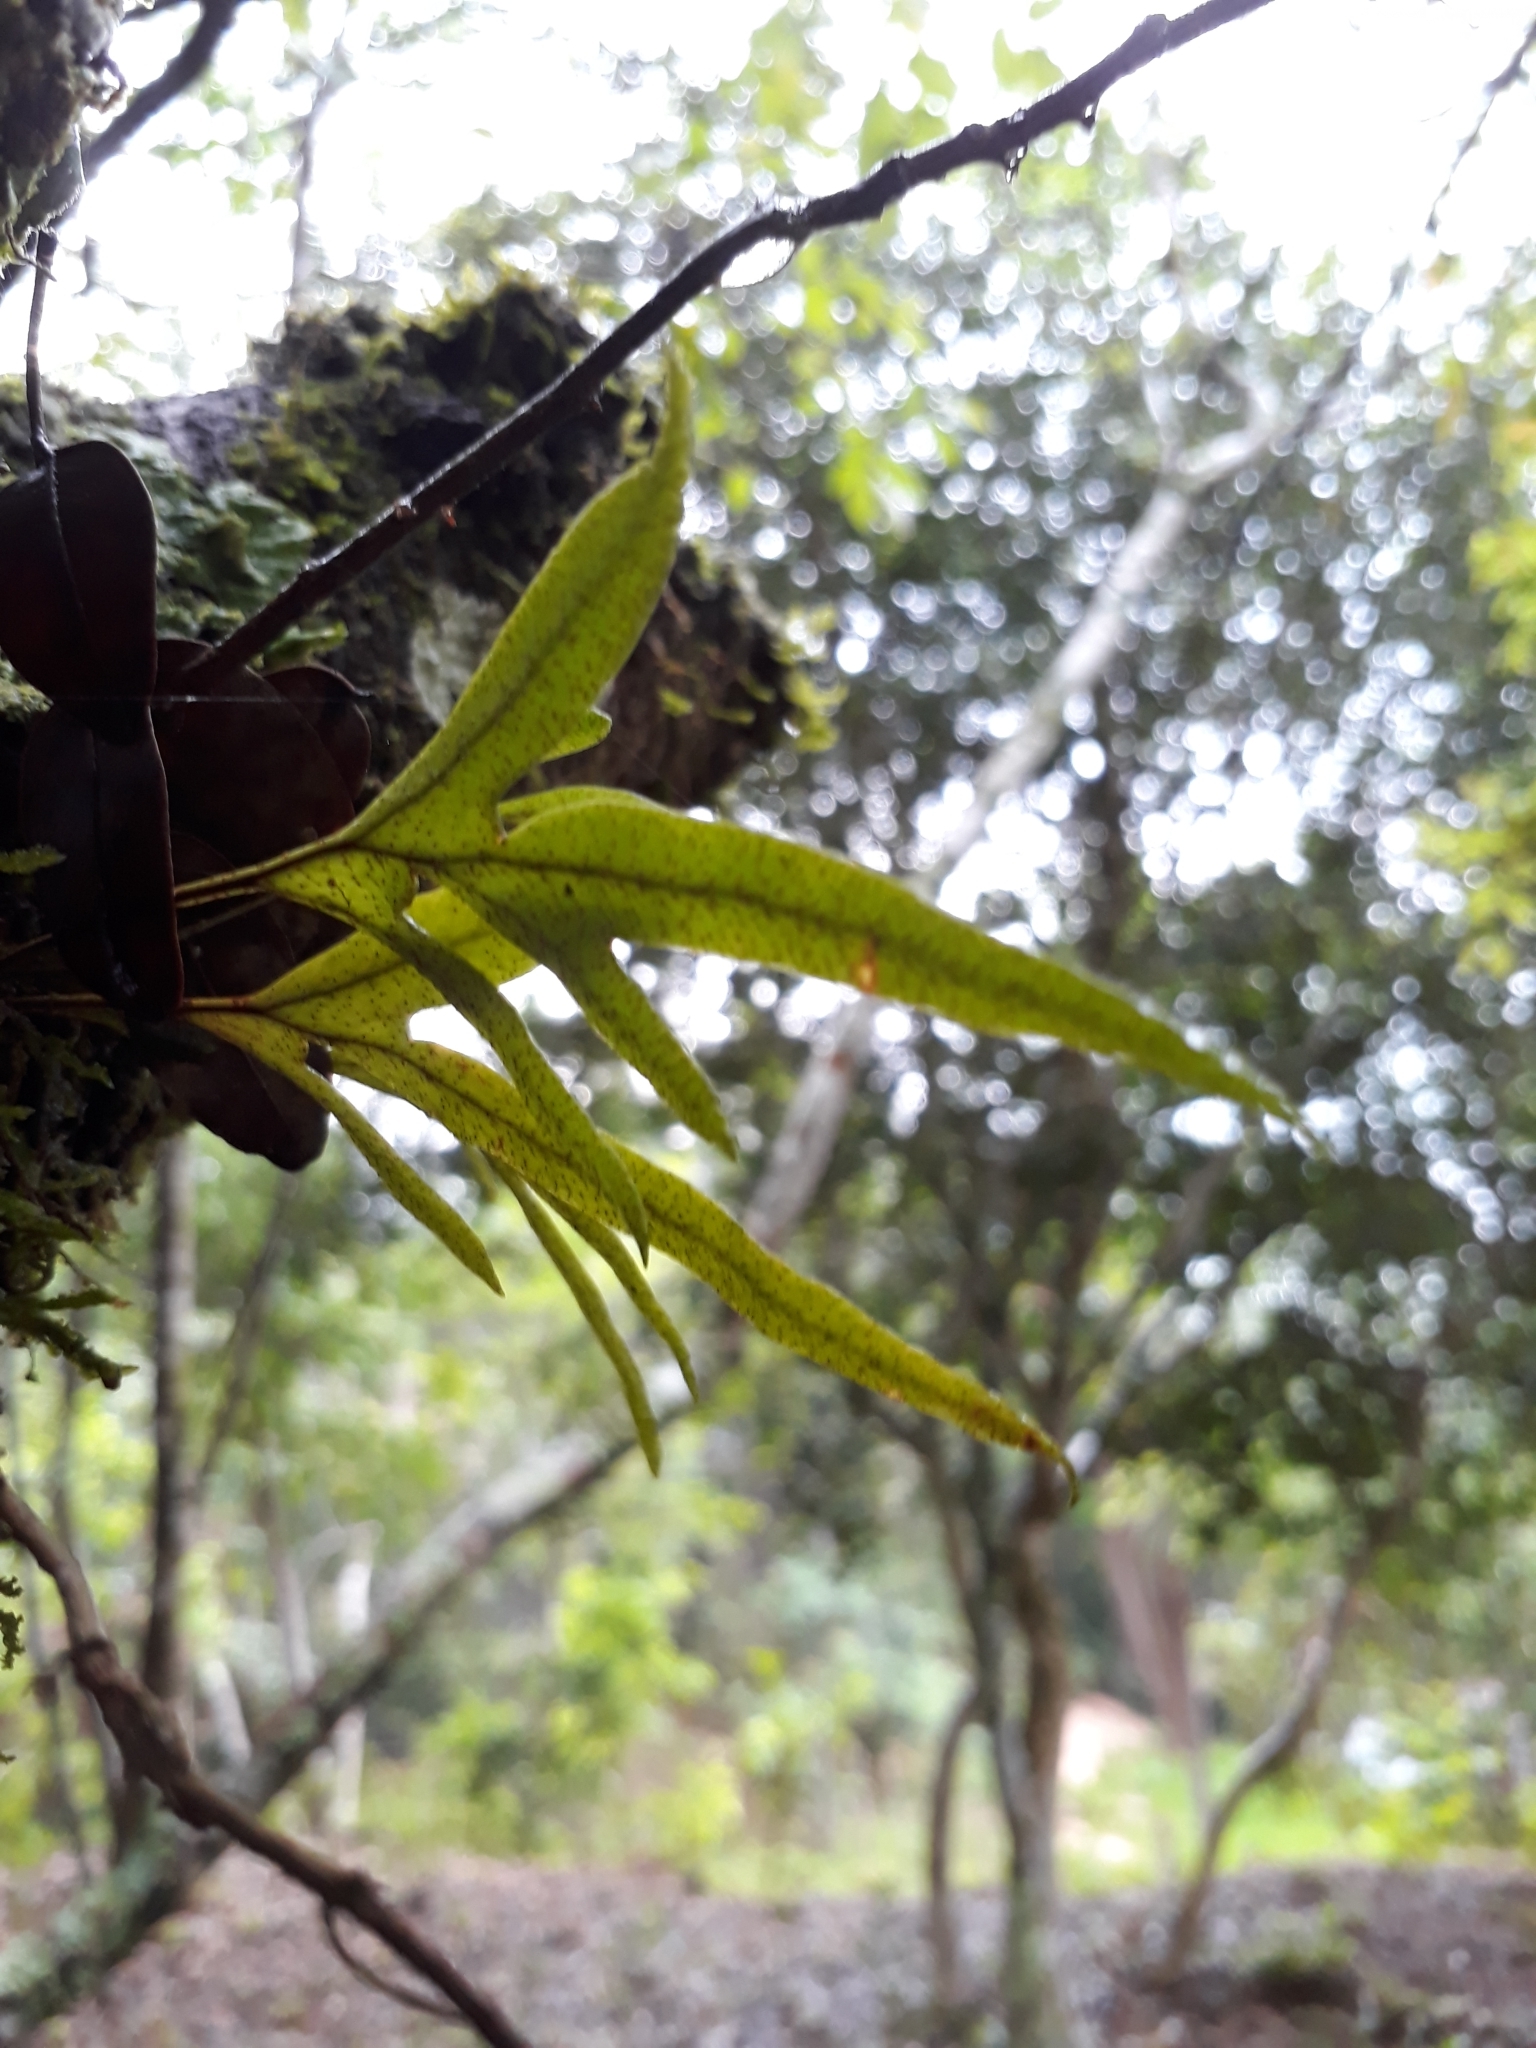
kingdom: Plantae
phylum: Tracheophyta
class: Polypodiopsida
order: Polypodiales
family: Polypodiaceae
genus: Pleopeltis
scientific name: Pleopeltis pleopeltifolia
